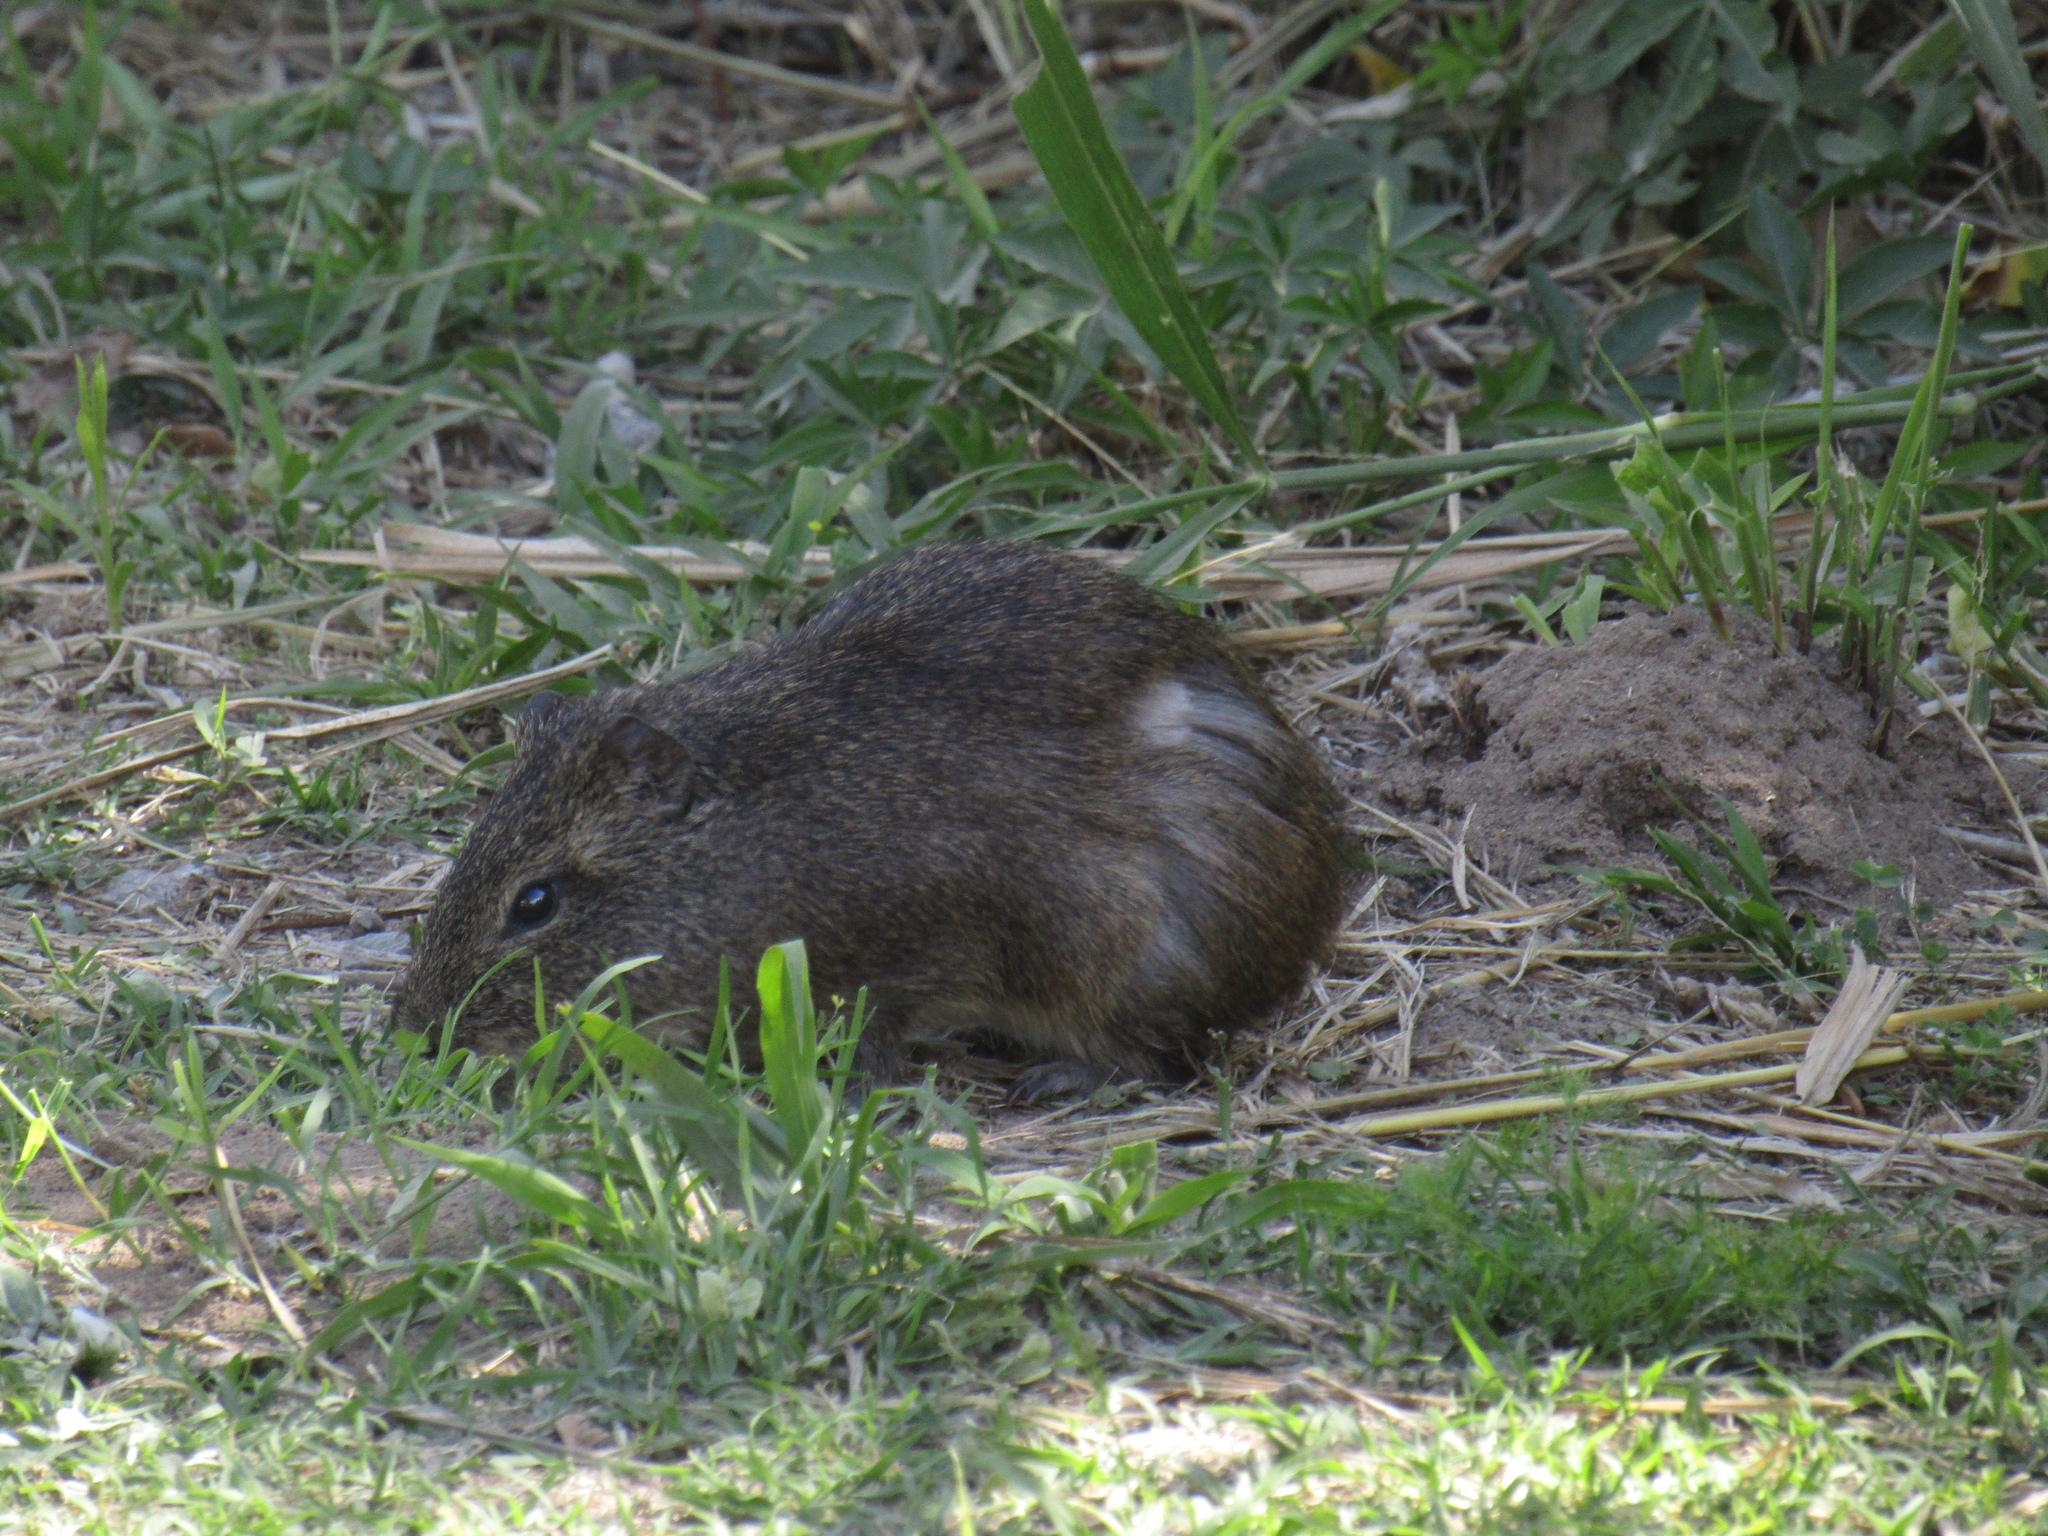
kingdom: Animalia
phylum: Chordata
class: Mammalia
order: Rodentia
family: Caviidae
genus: Cavia
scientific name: Cavia aperea
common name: Brazilian guinea pig
